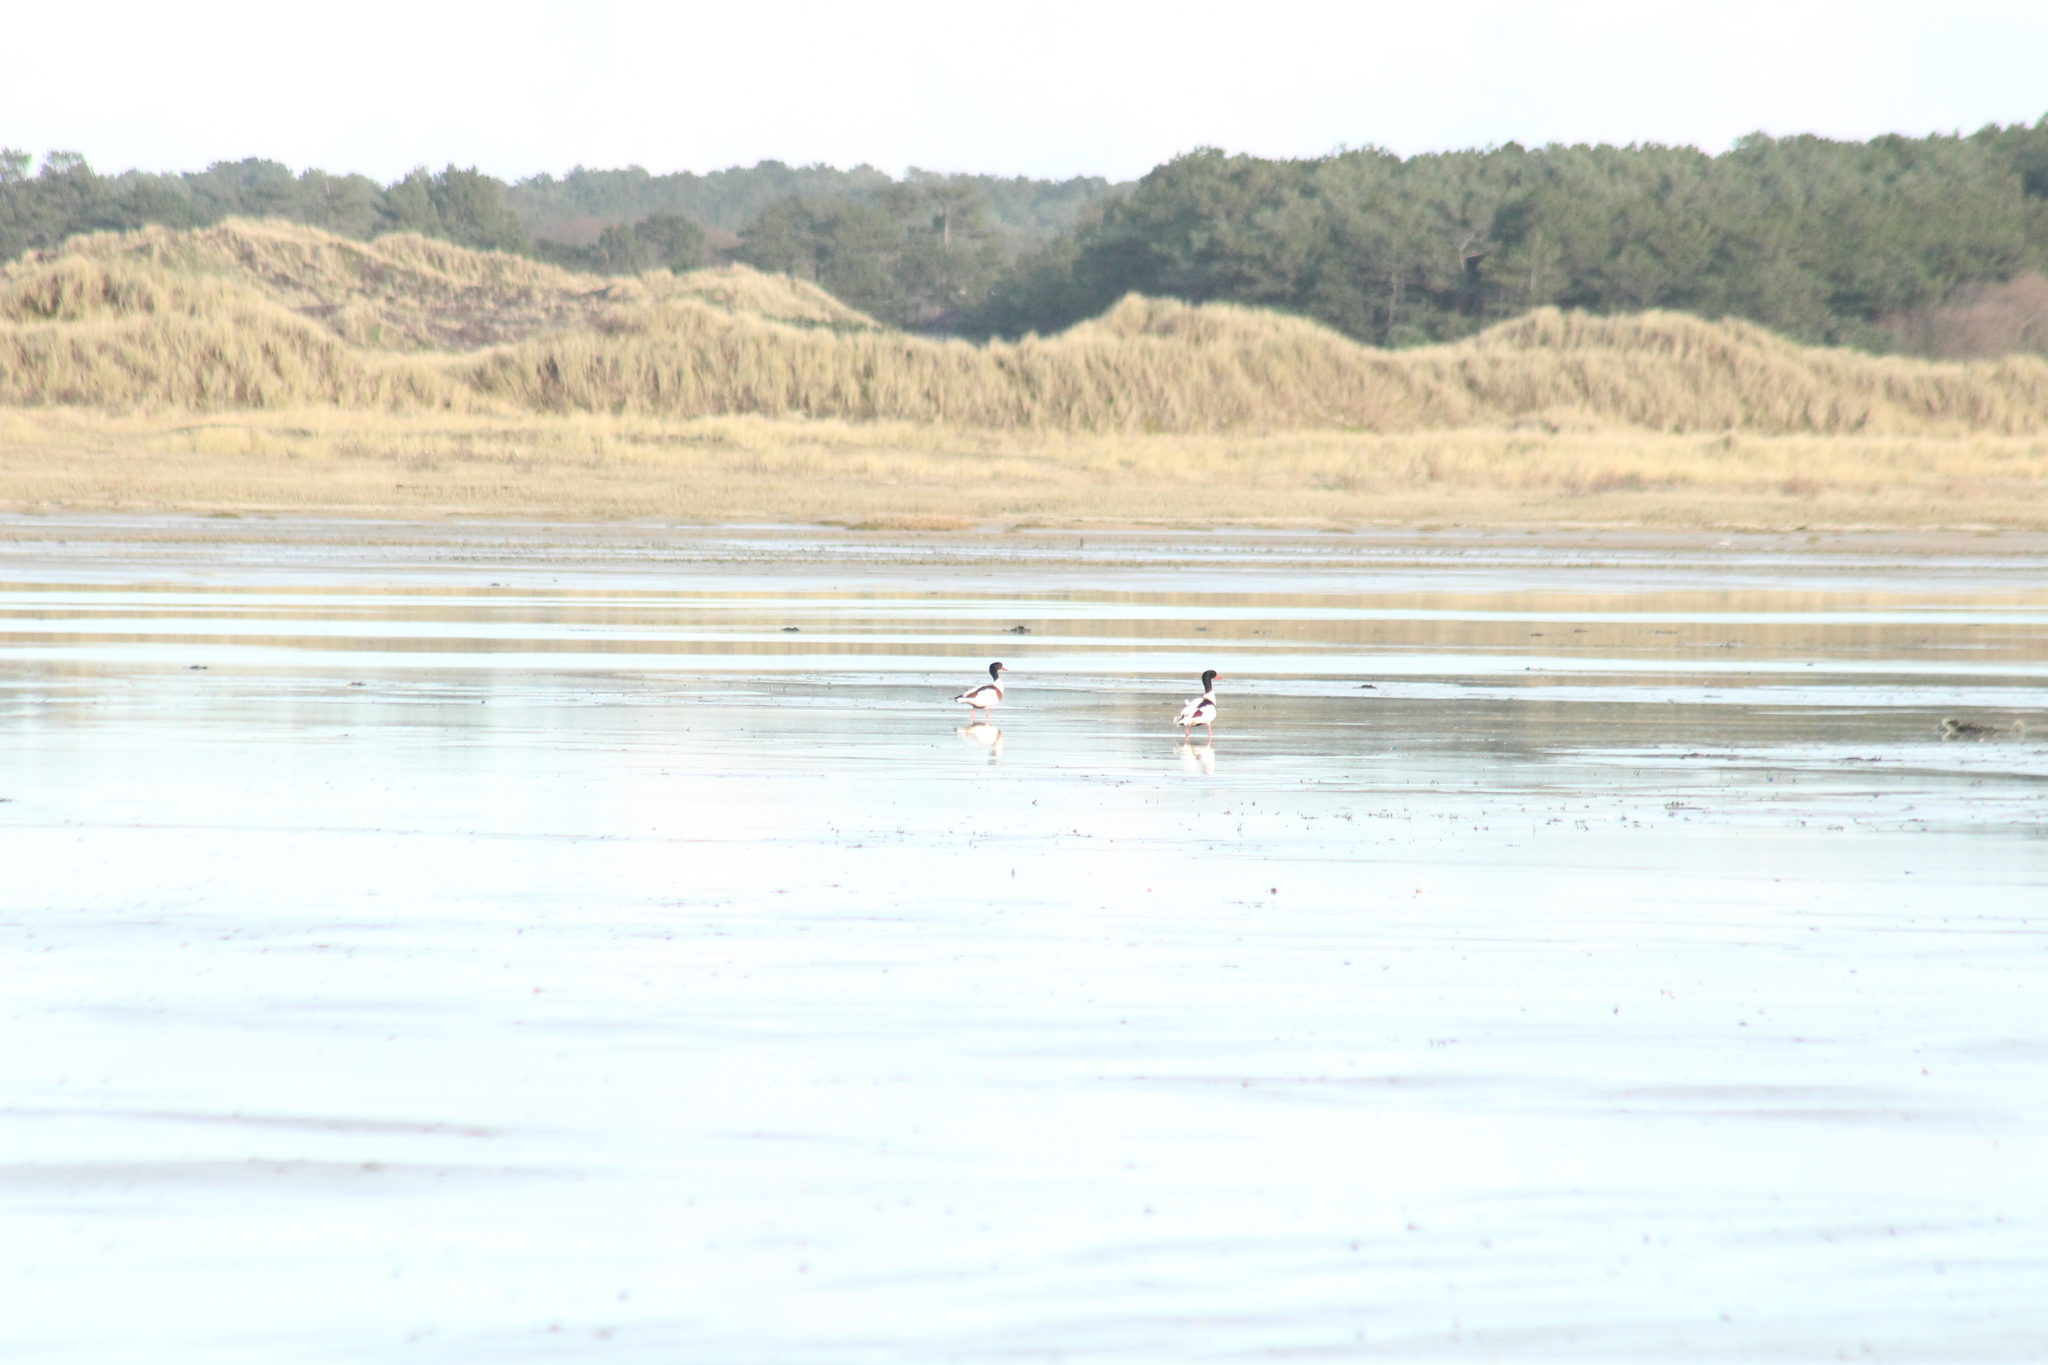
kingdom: Animalia
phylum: Chordata
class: Aves
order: Anseriformes
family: Anatidae
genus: Tadorna
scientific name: Tadorna tadorna
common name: Common shelduck
